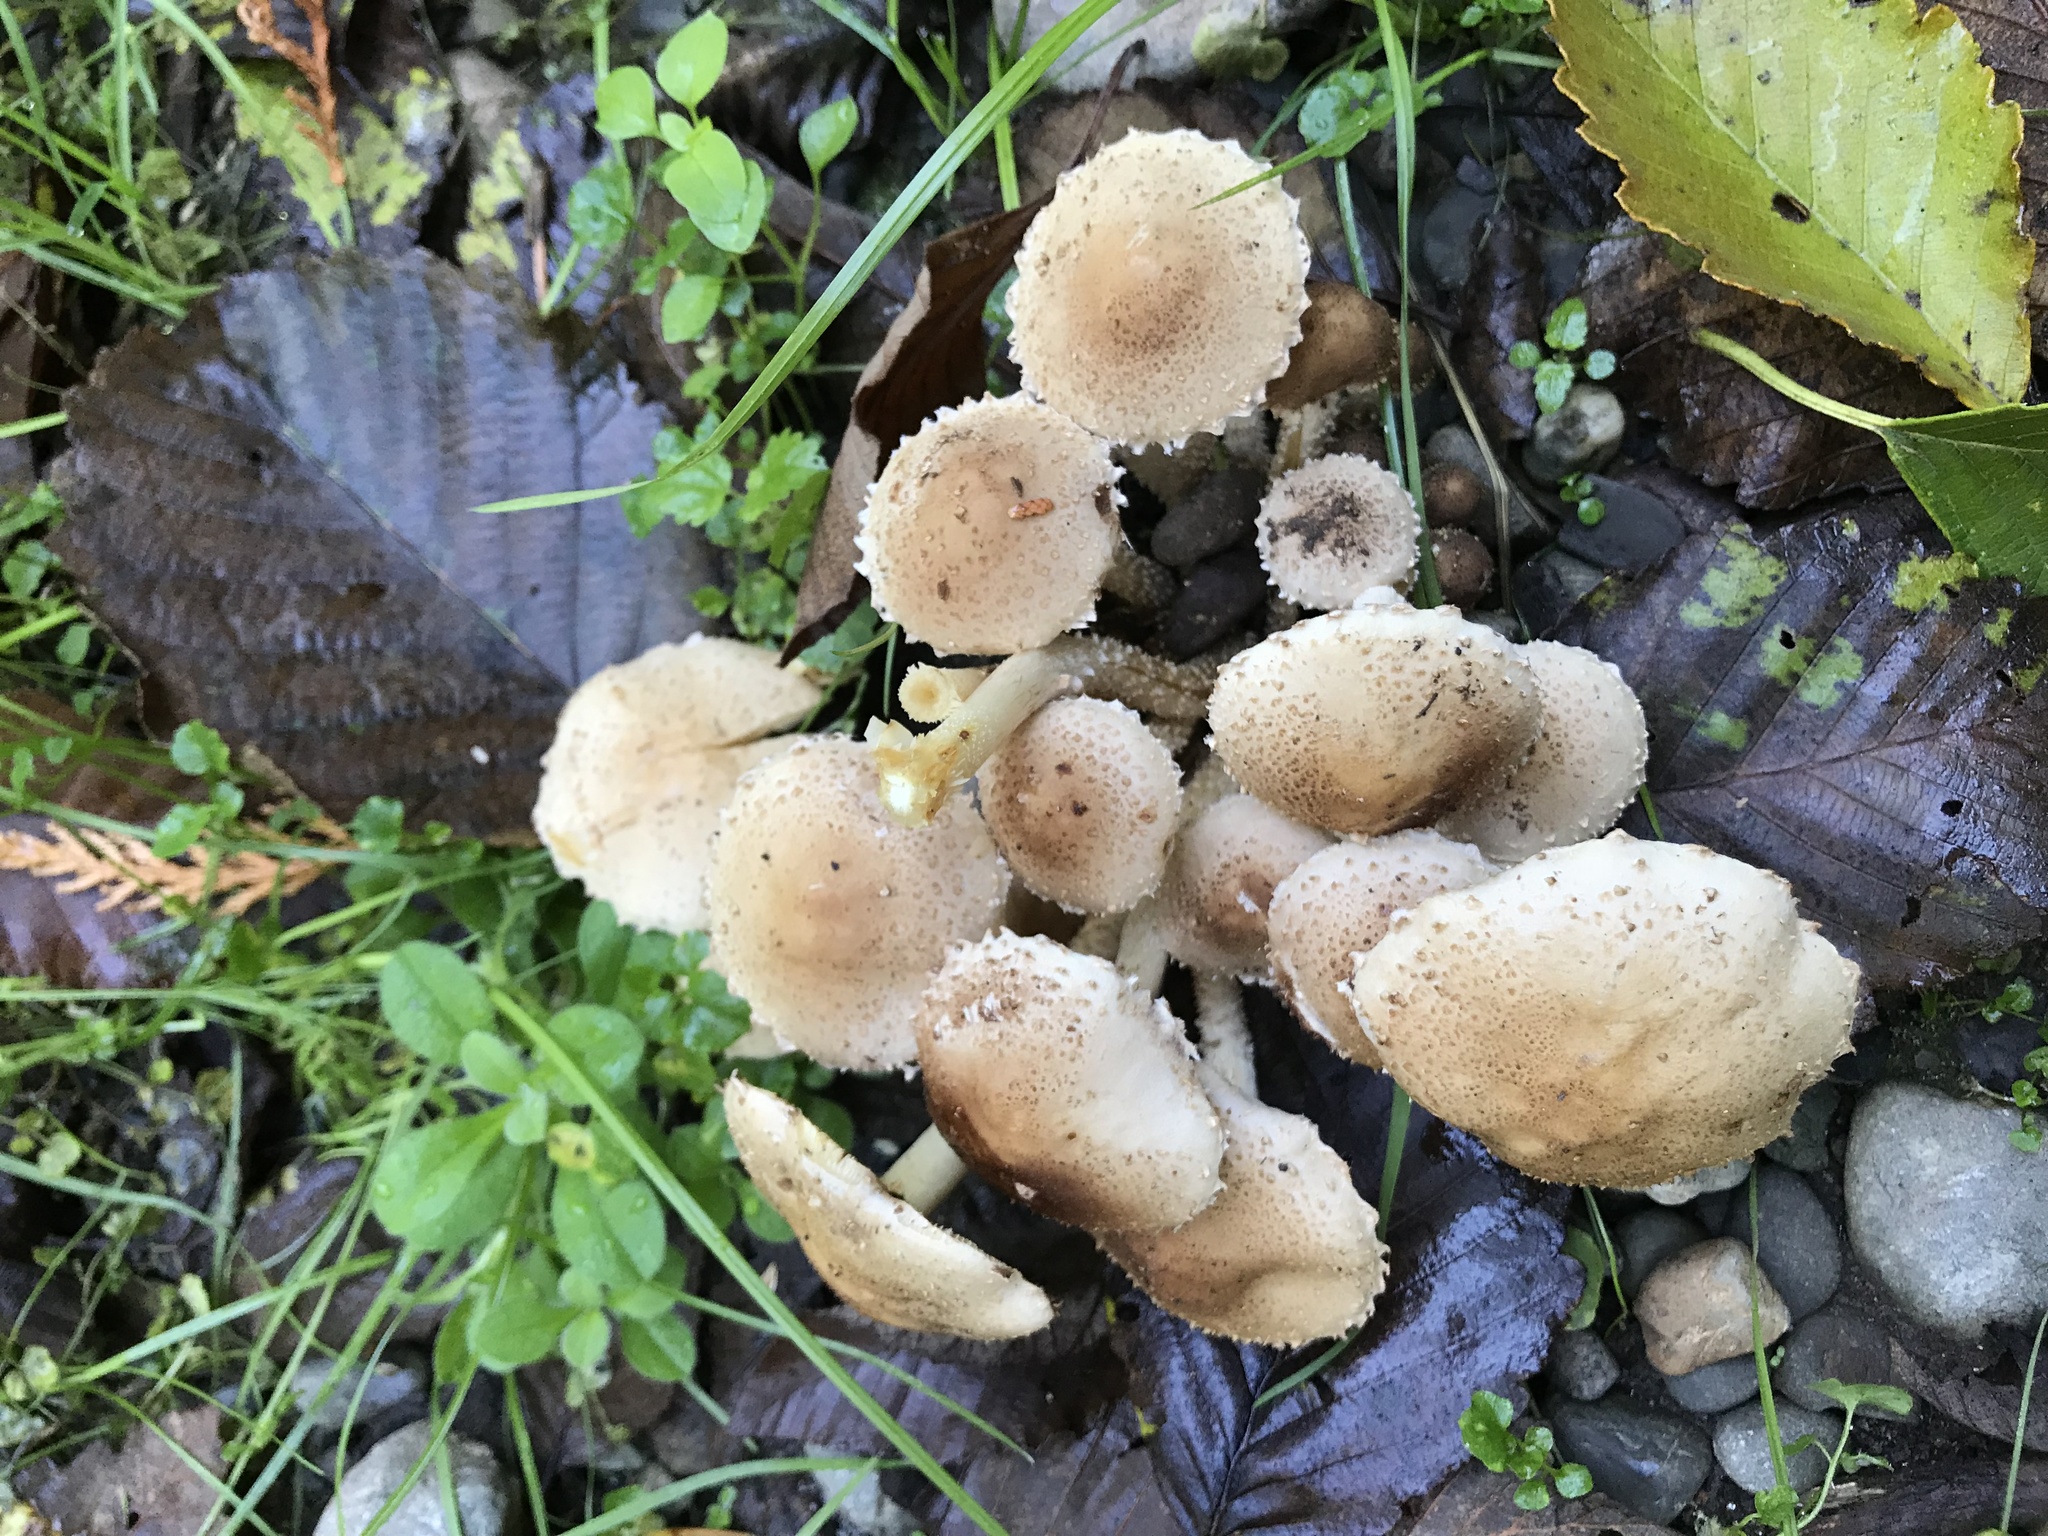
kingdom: Fungi
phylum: Basidiomycota
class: Agaricomycetes
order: Agaricales
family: Strophariaceae
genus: Pholiota
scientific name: Pholiota terrestris
